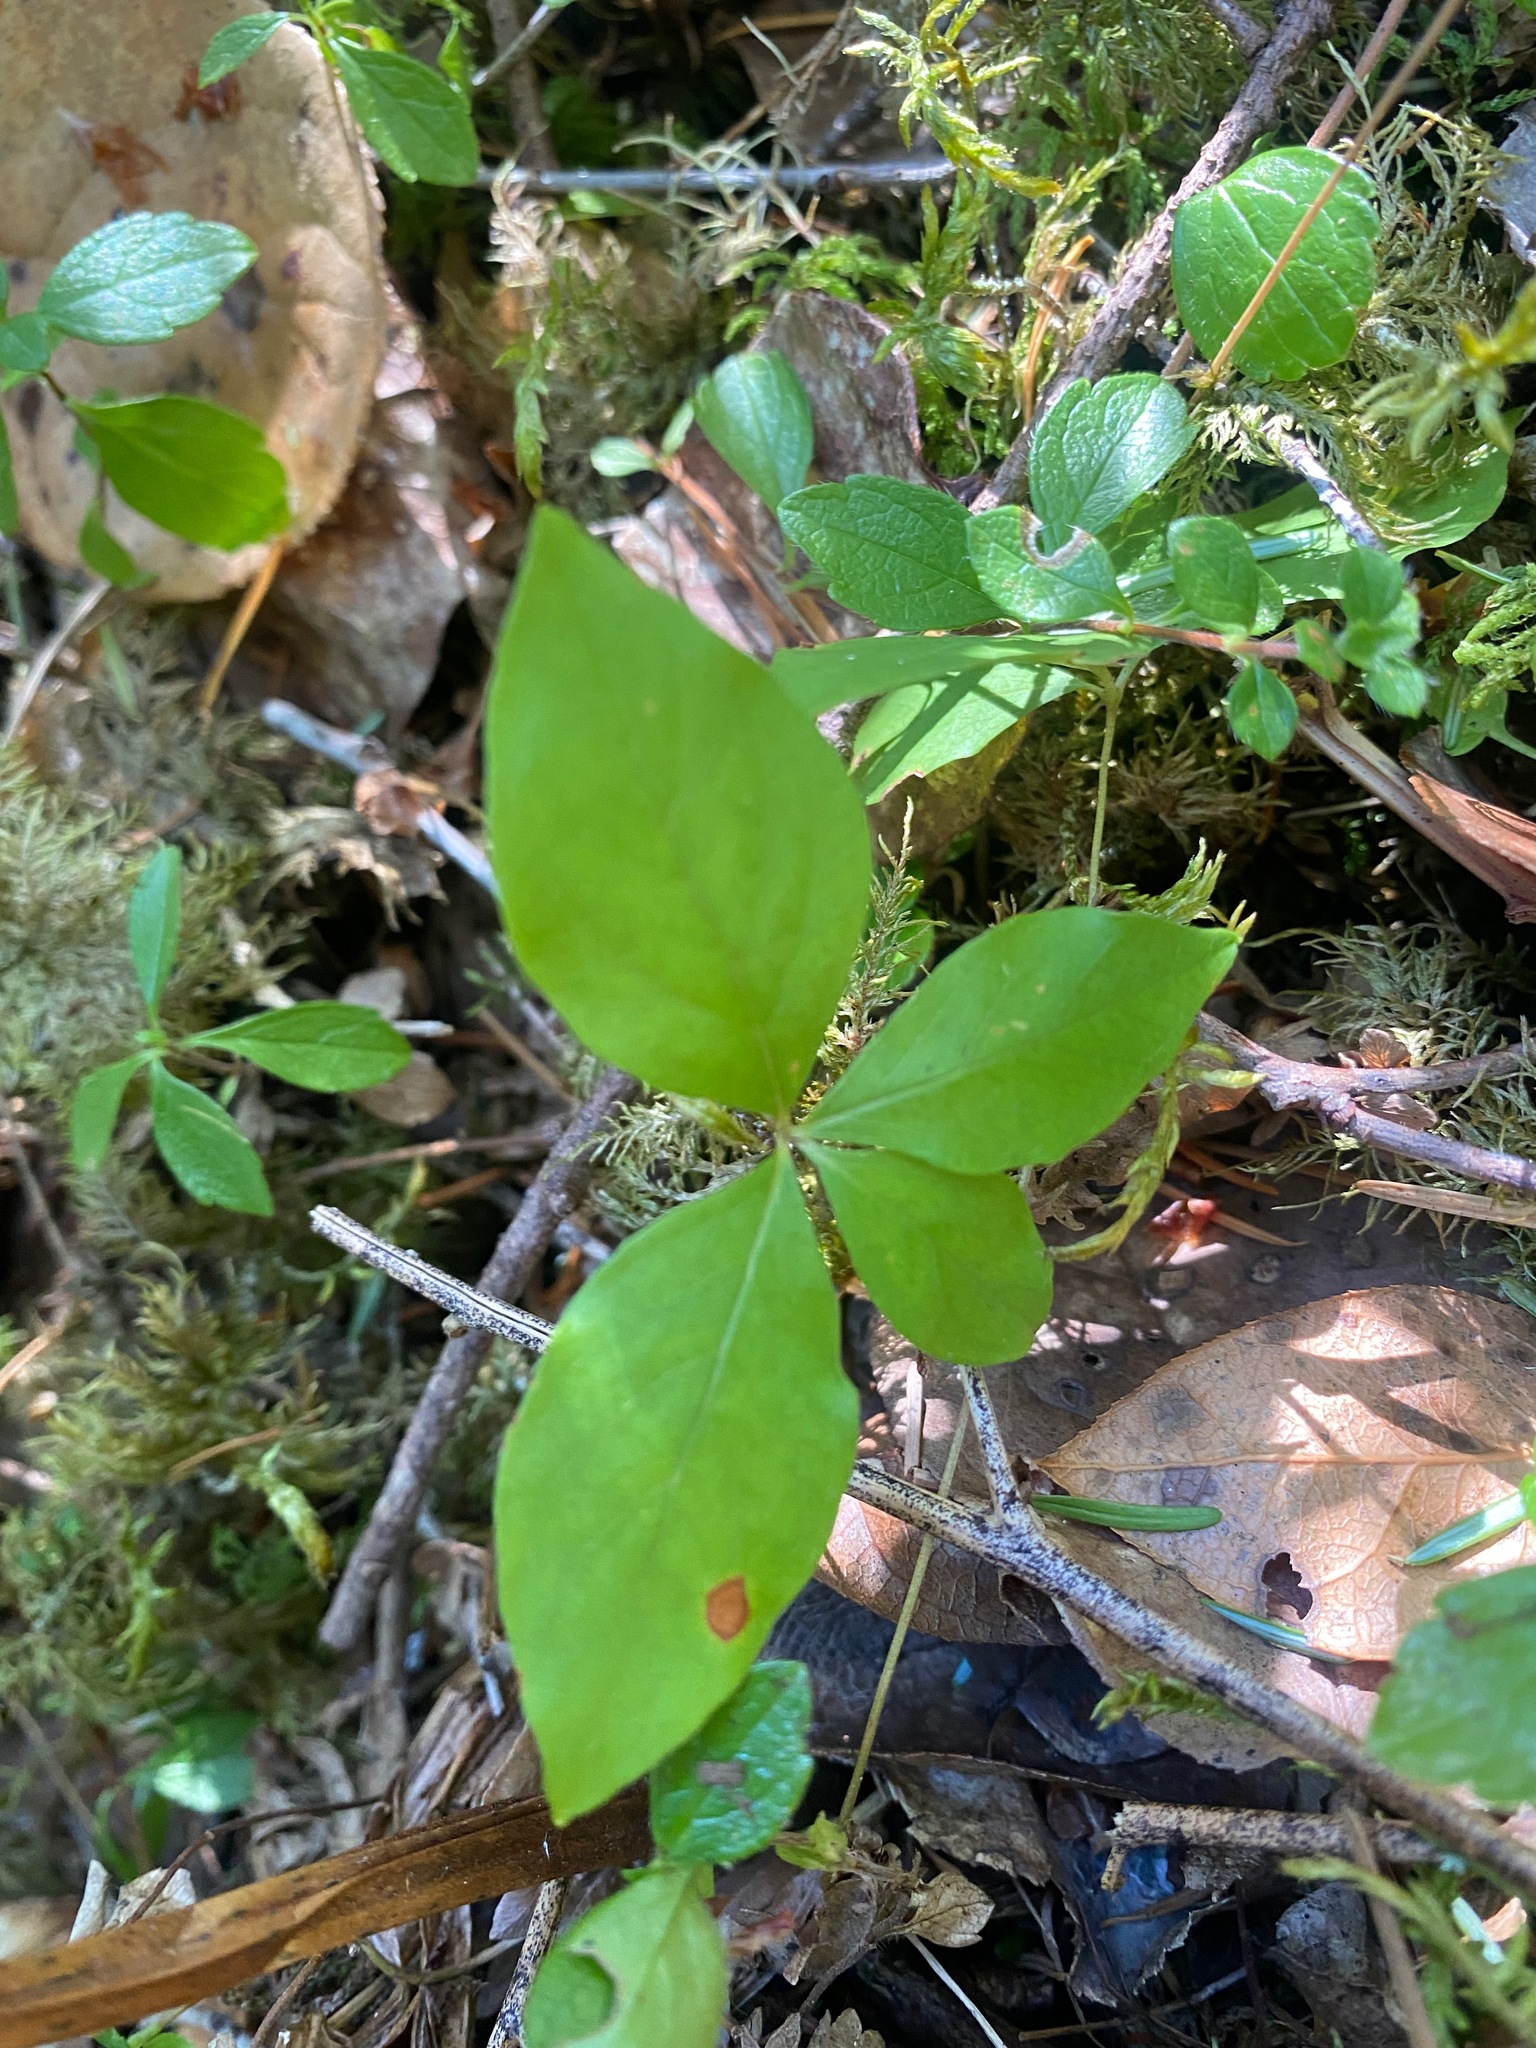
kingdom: Plantae
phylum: Tracheophyta
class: Magnoliopsida
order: Ericales
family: Primulaceae
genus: Lysimachia
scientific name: Lysimachia latifolia
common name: Pacific starflower
